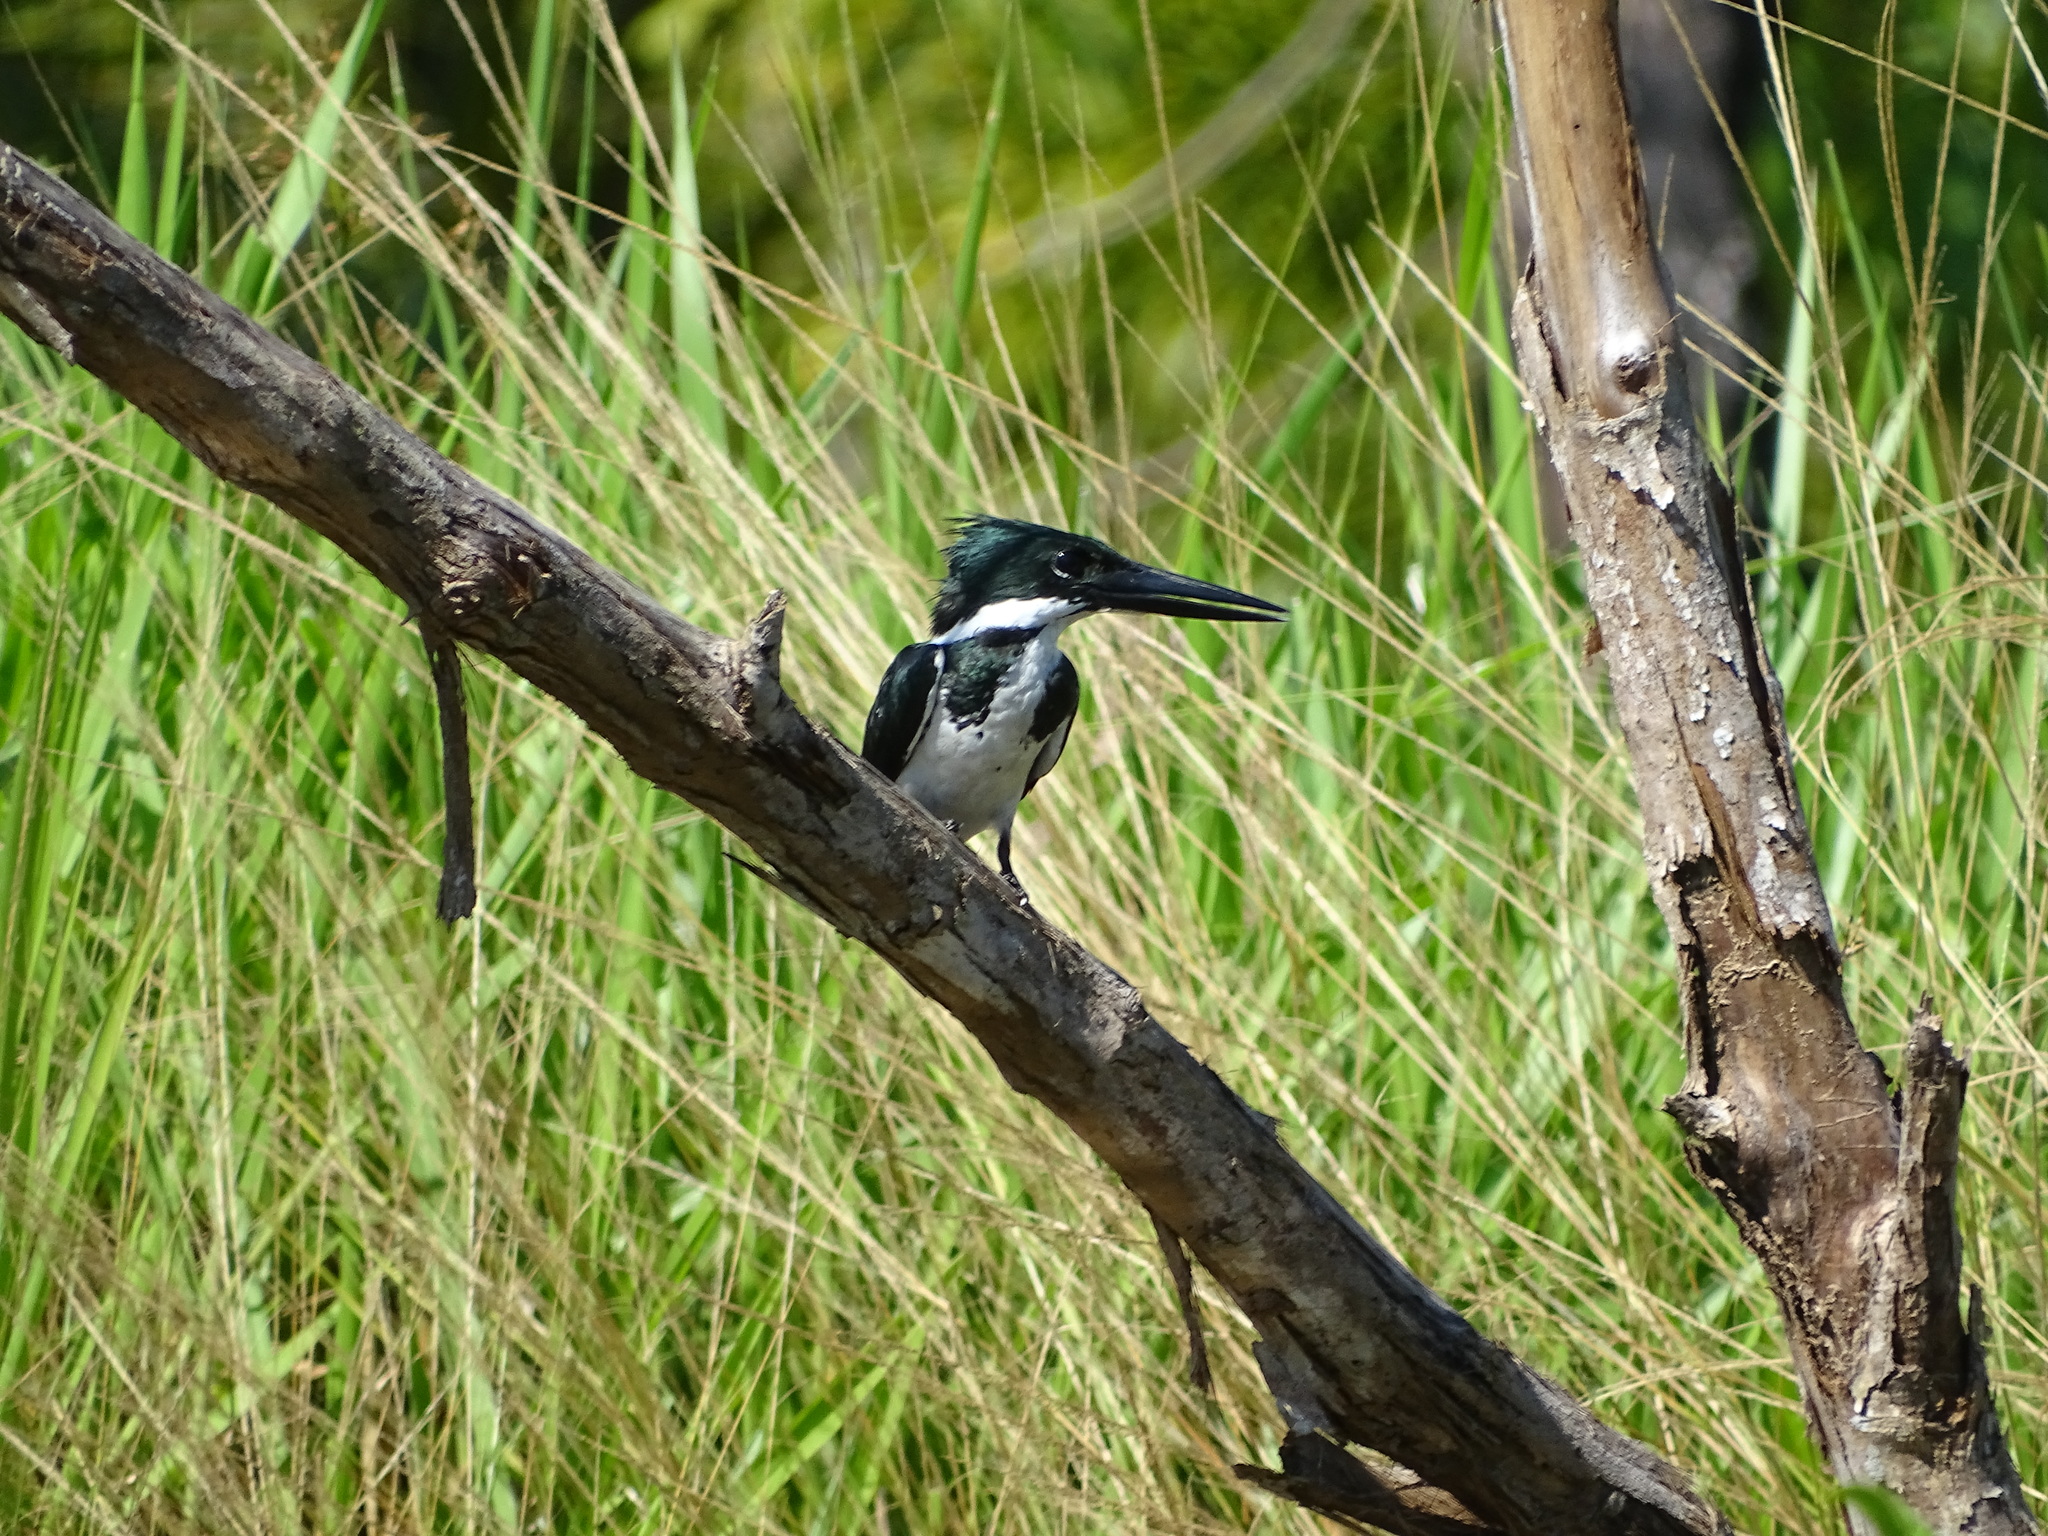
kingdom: Animalia
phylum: Chordata
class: Aves
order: Coraciiformes
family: Alcedinidae
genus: Chloroceryle
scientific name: Chloroceryle amazona
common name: Amazon kingfisher
